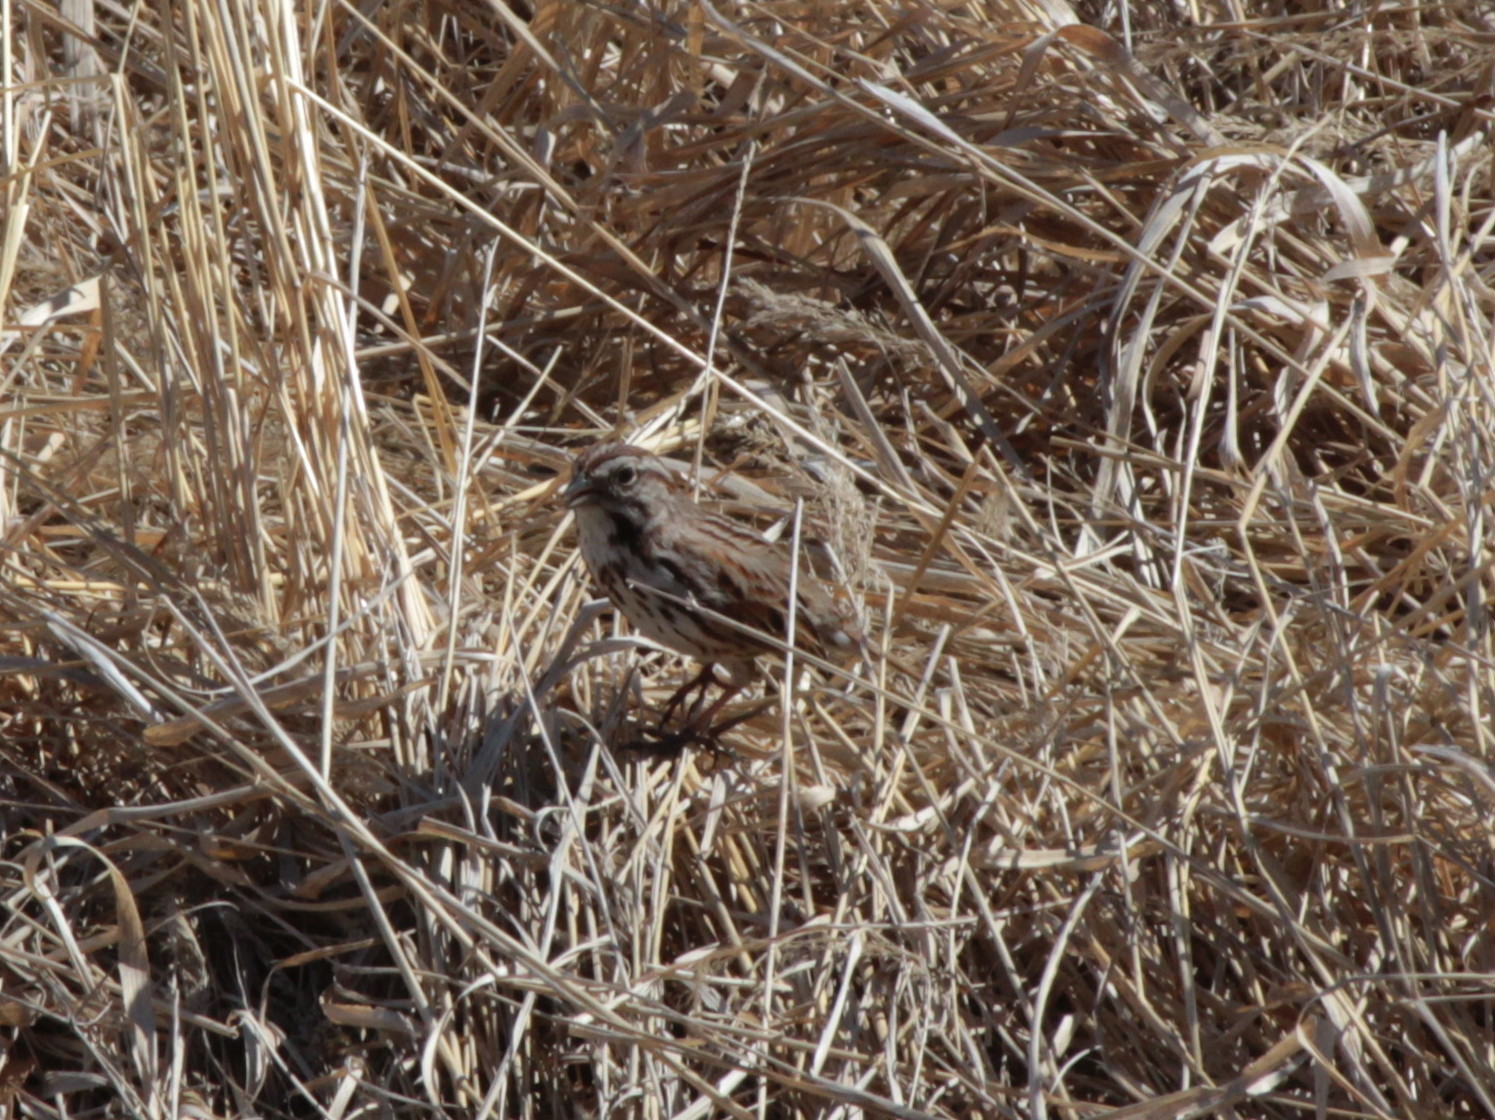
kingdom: Animalia
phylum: Chordata
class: Aves
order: Passeriformes
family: Passerellidae
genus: Melospiza
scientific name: Melospiza melodia
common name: Song sparrow
